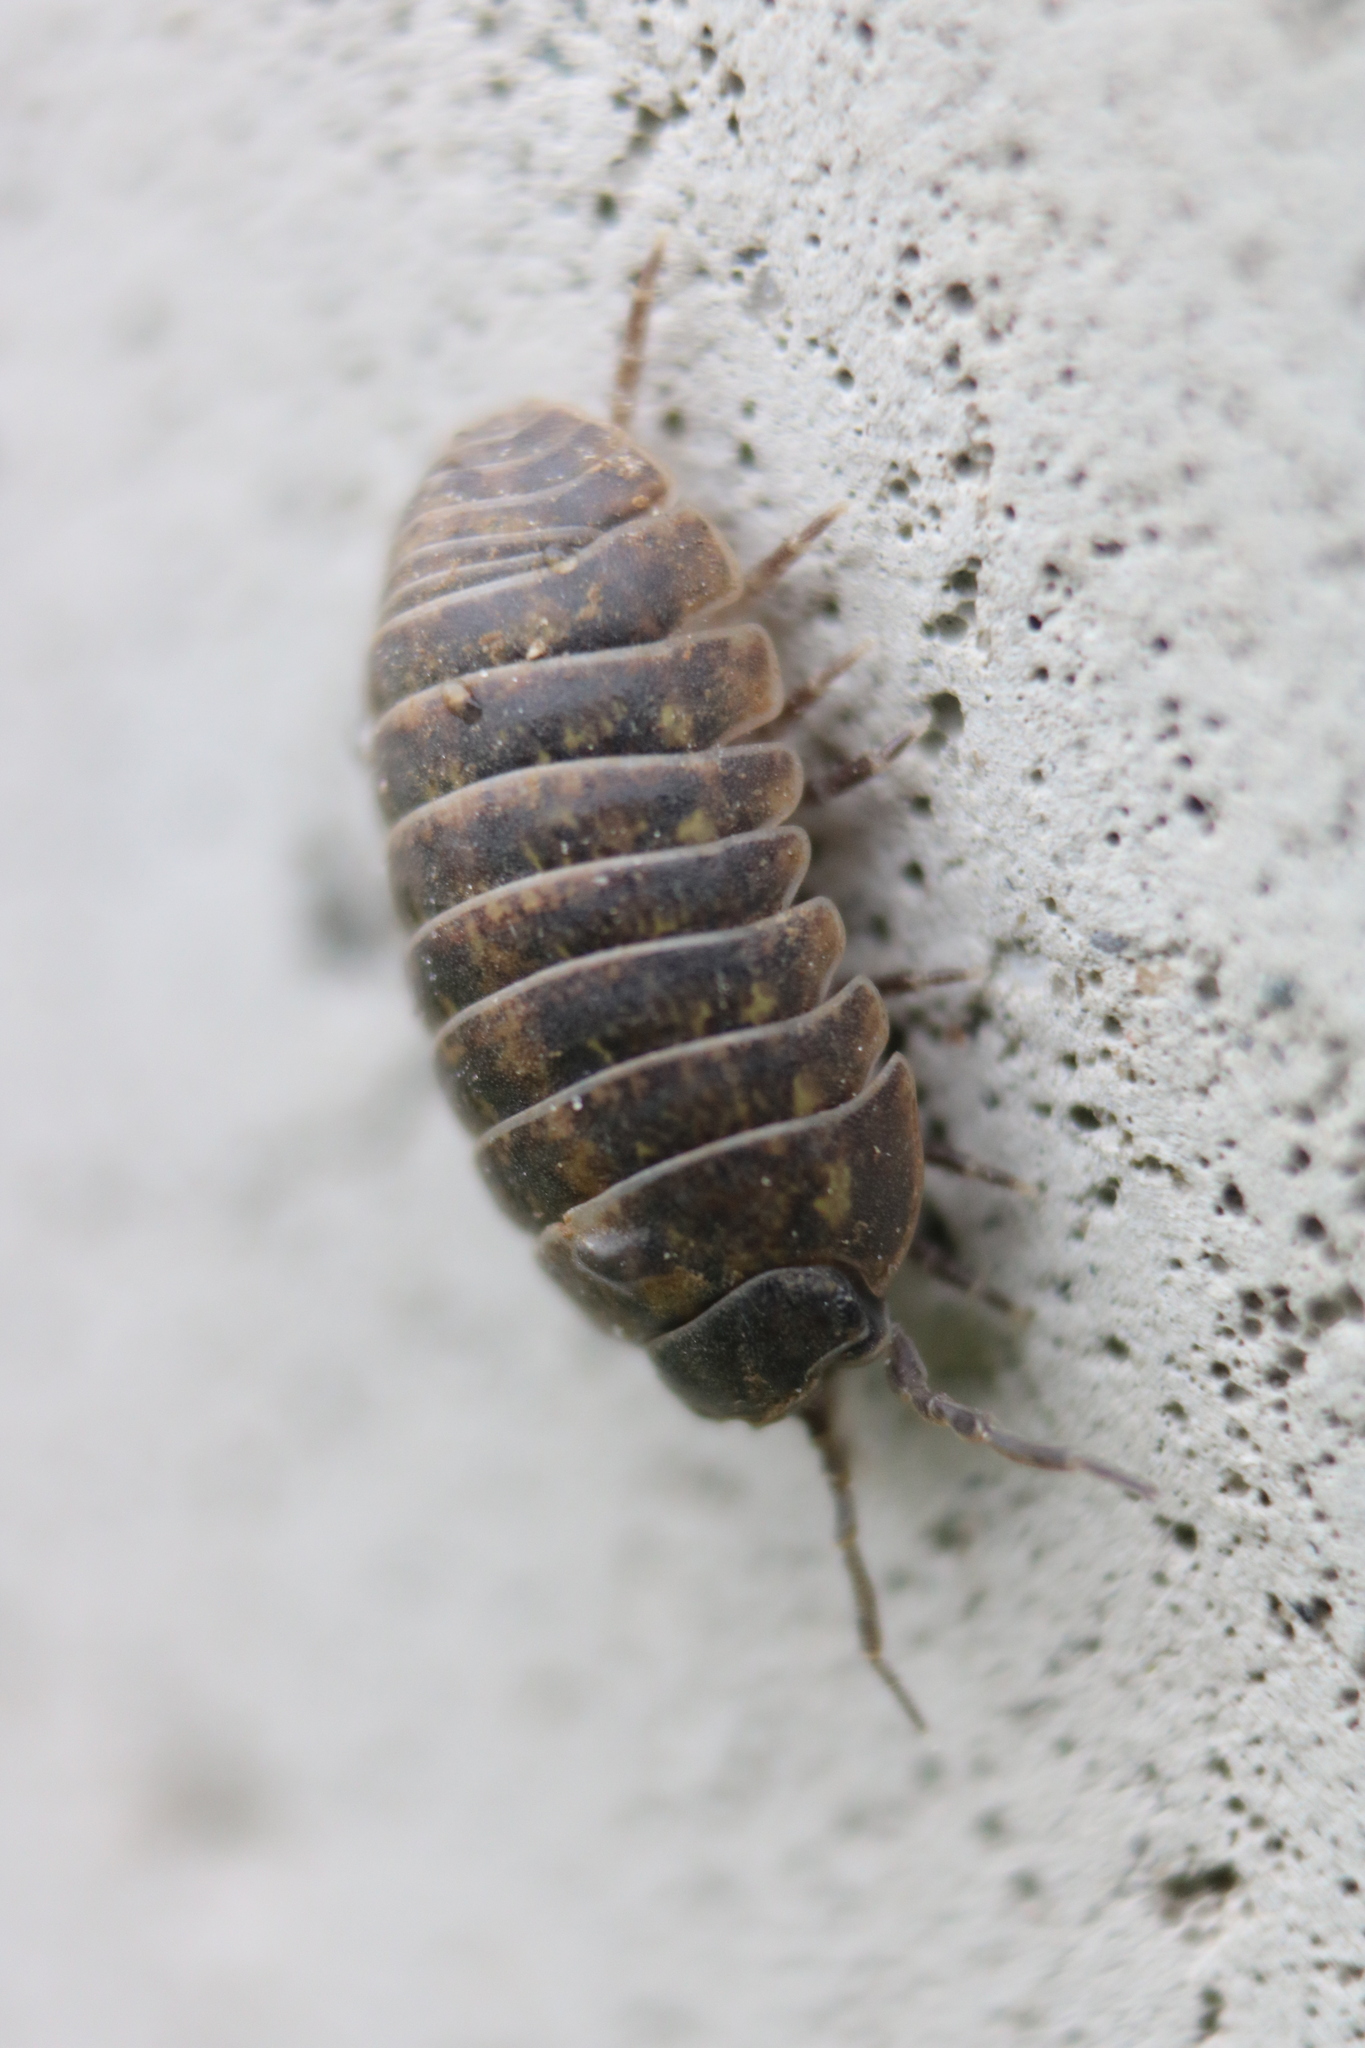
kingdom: Animalia
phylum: Arthropoda
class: Malacostraca
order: Isopoda
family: Armadillidiidae
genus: Armadillidium
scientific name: Armadillidium vulgare
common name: Common pill woodlouse
